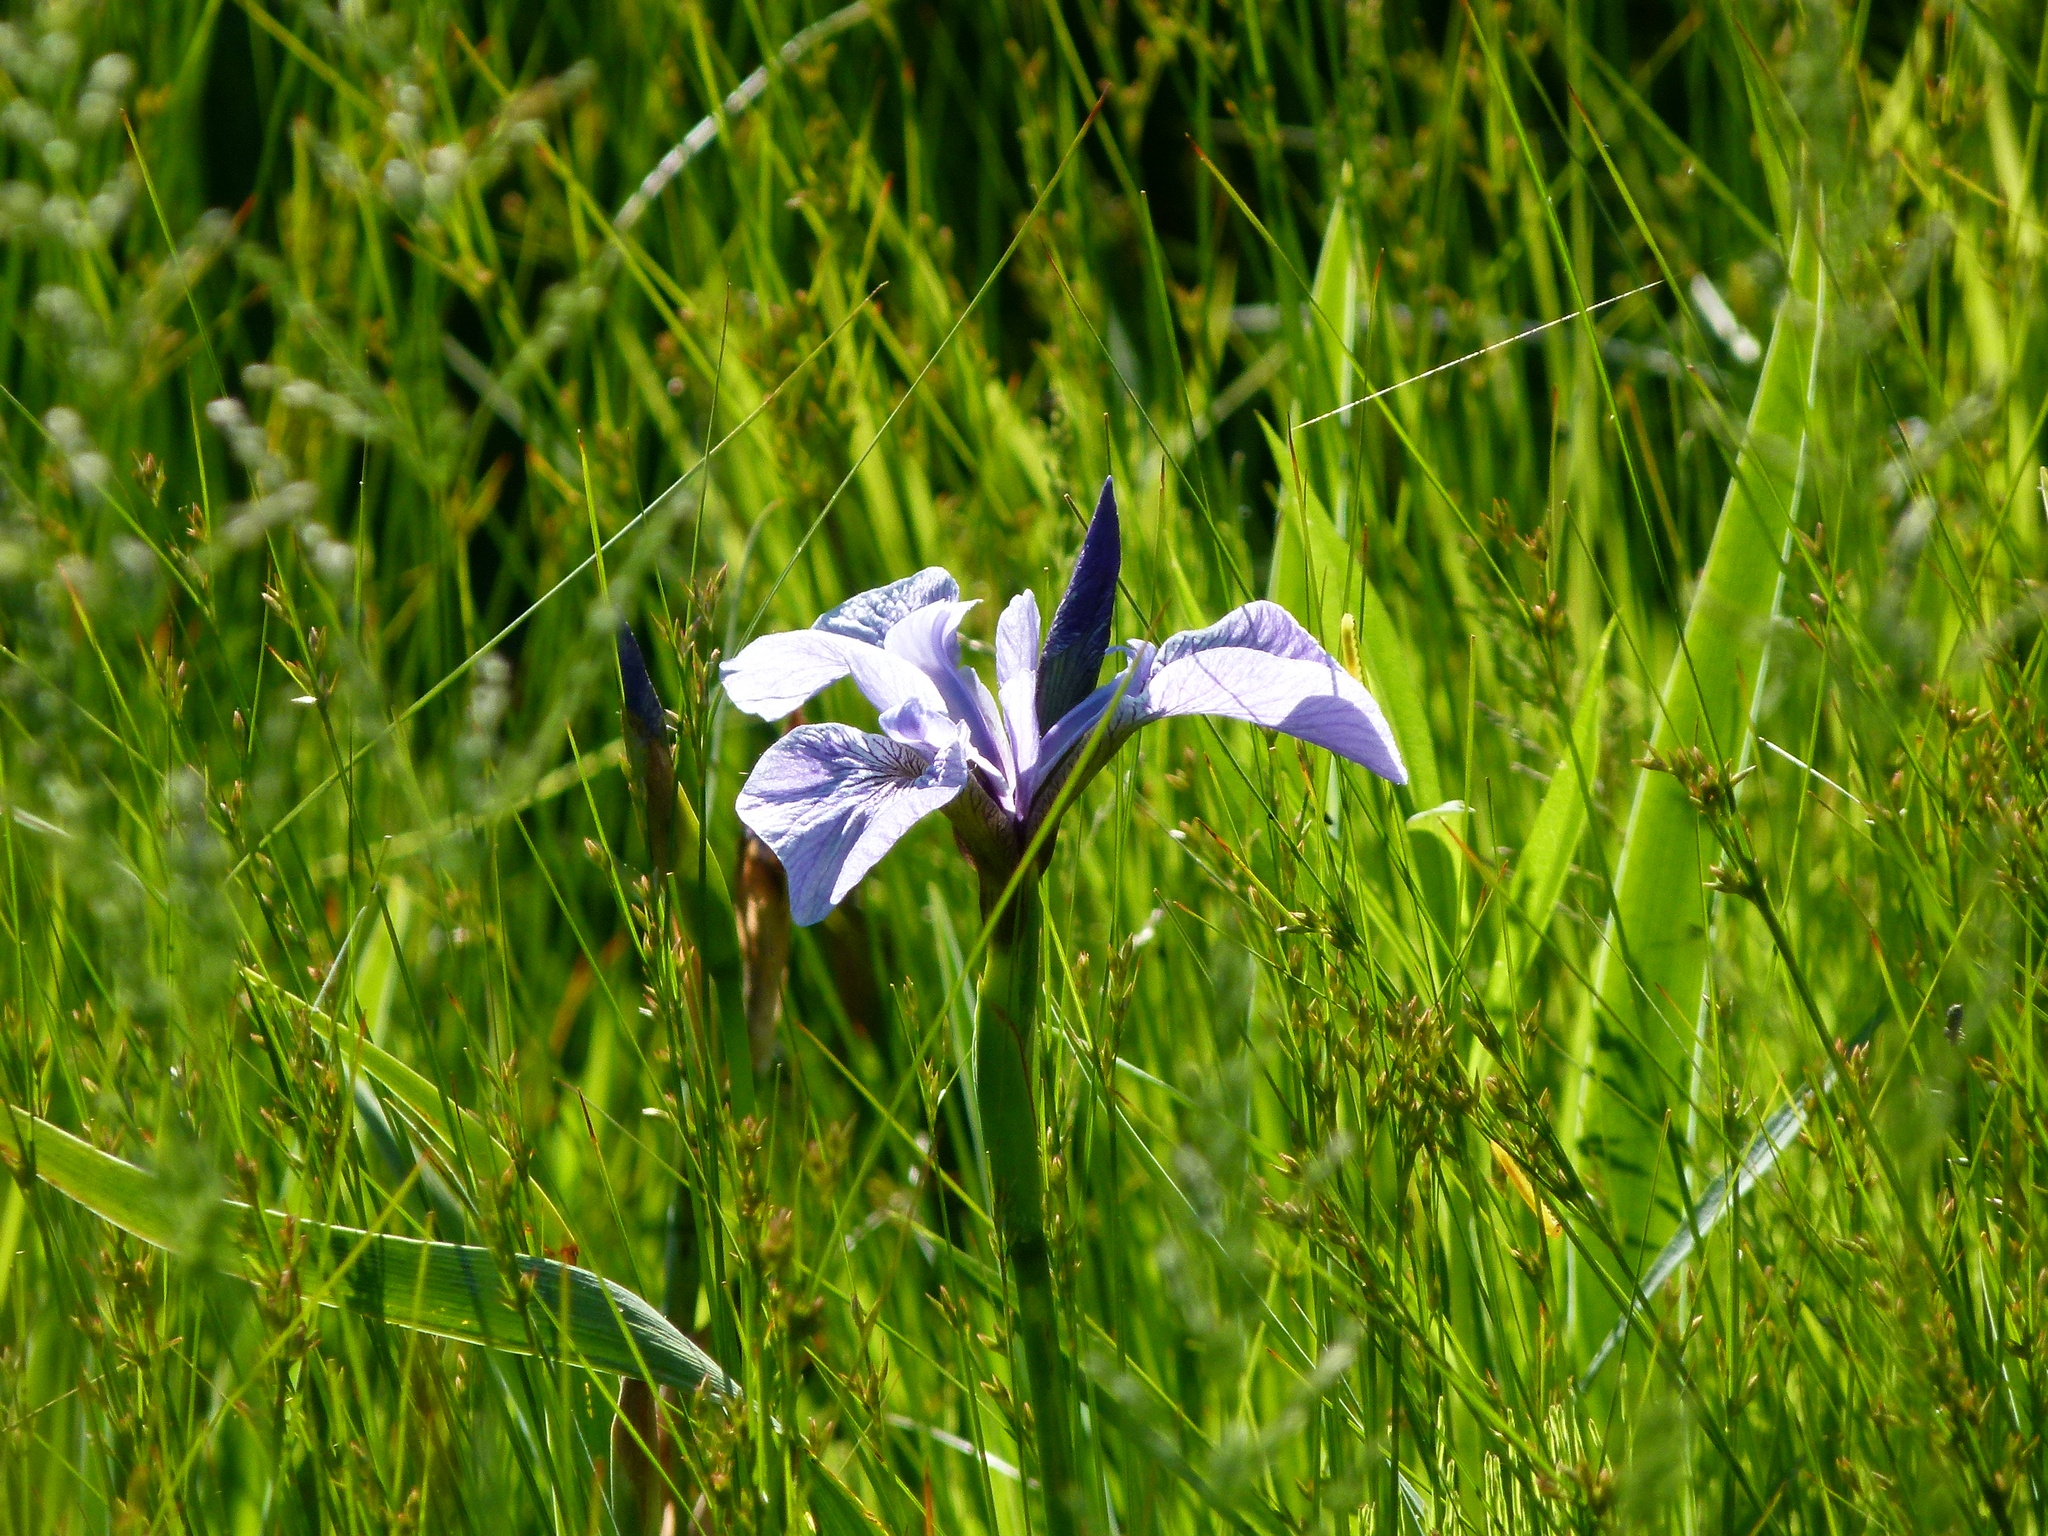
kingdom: Plantae
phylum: Tracheophyta
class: Liliopsida
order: Asparagales
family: Iridaceae
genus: Iris
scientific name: Iris versicolor
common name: Purple iris
